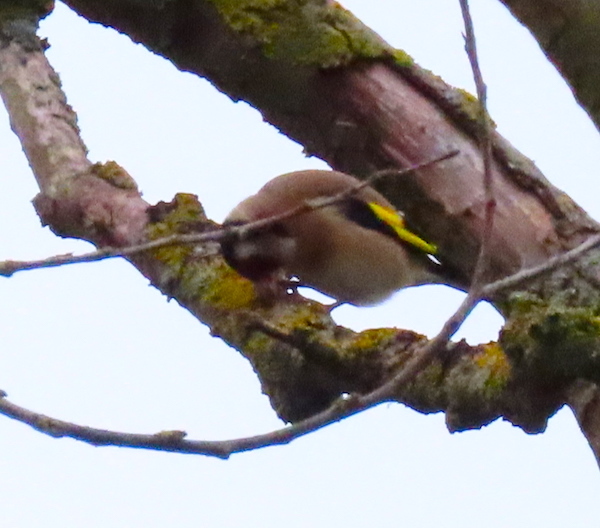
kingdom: Animalia
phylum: Chordata
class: Aves
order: Passeriformes
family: Fringillidae
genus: Carduelis
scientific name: Carduelis carduelis
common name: European goldfinch
